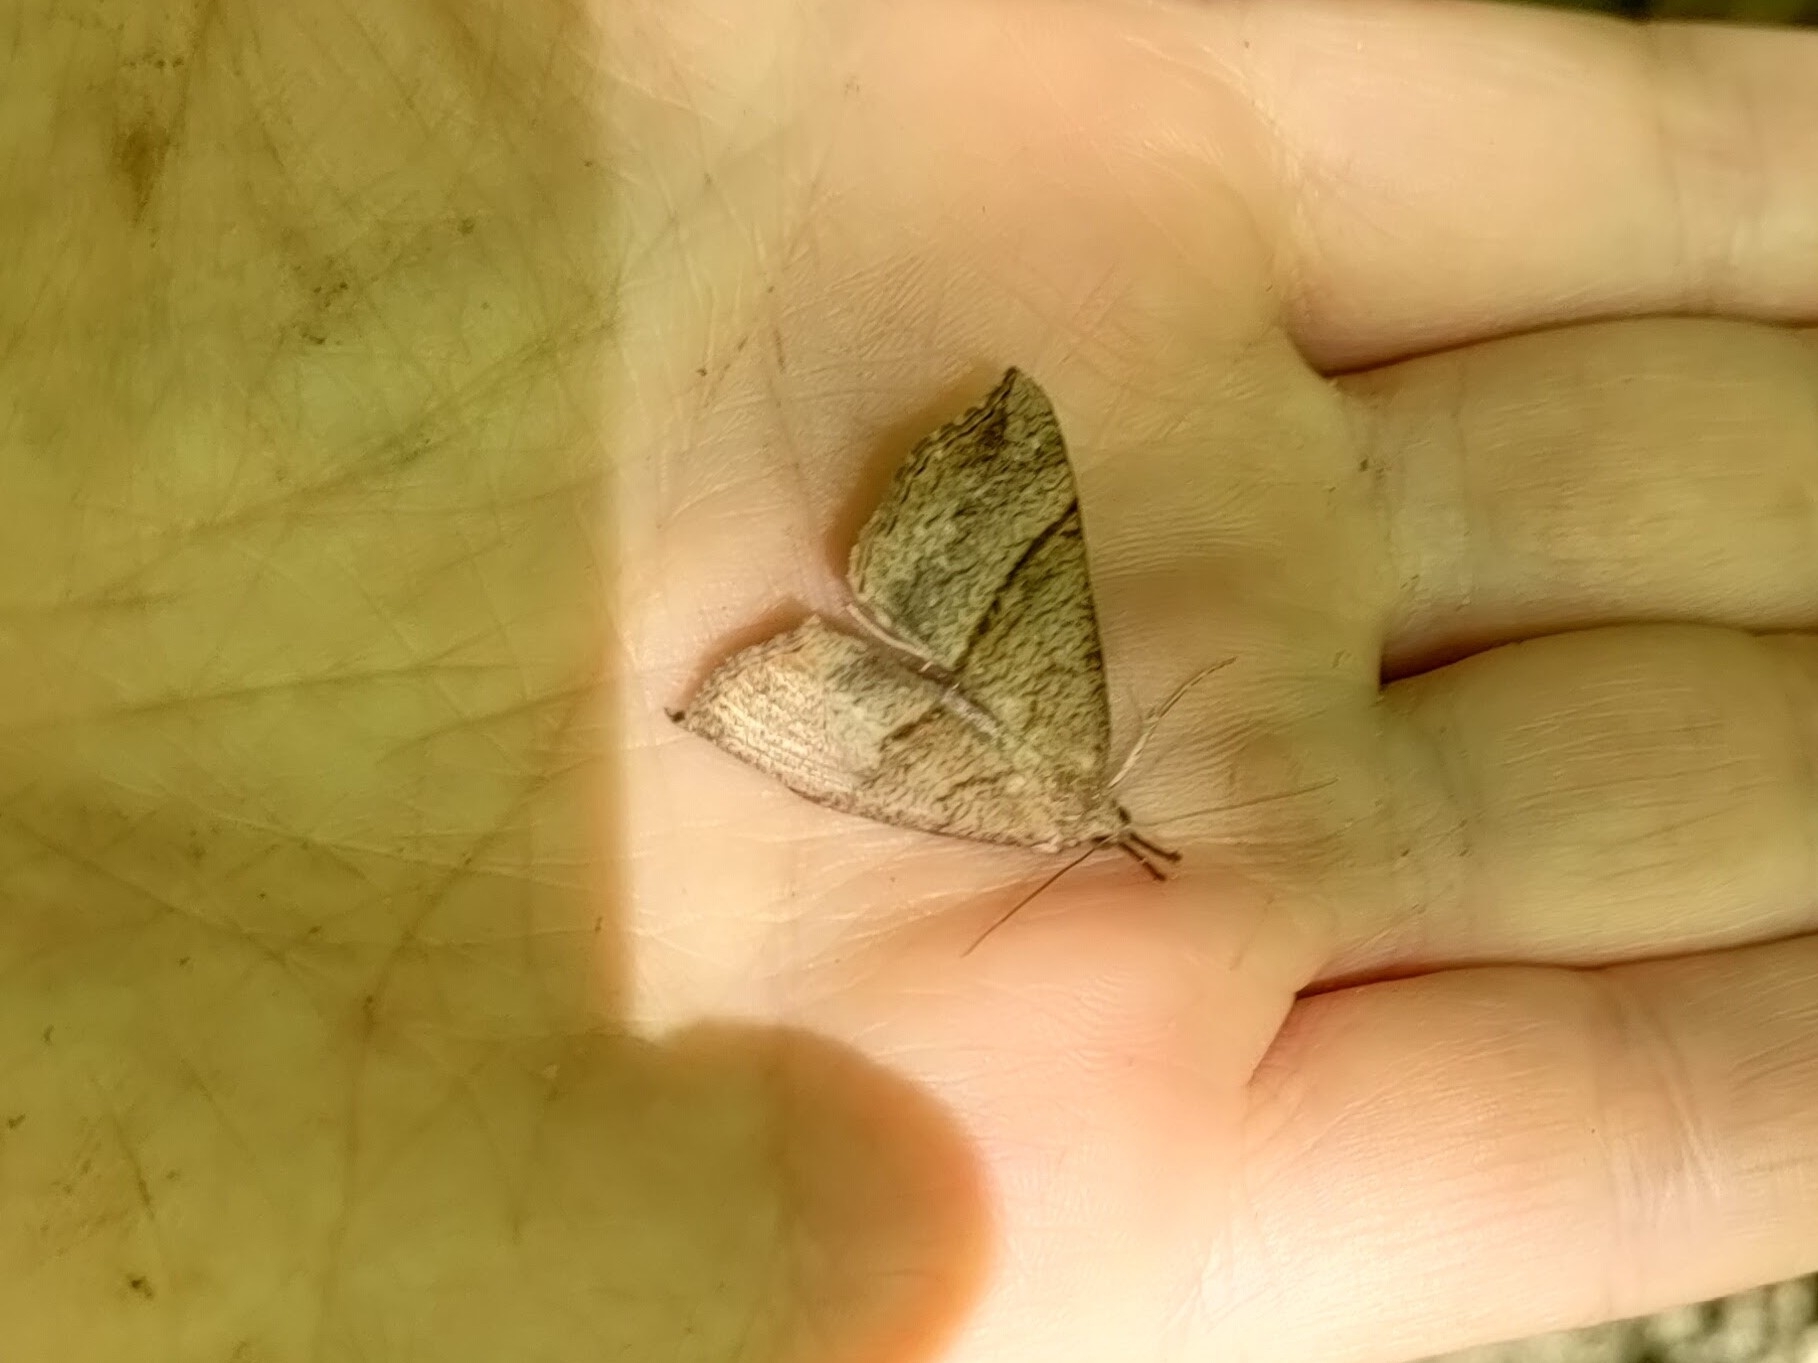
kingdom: Animalia
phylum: Arthropoda
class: Insecta
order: Lepidoptera
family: Erebidae
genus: Hypena
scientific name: Hypena proboscidalis
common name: Snout
